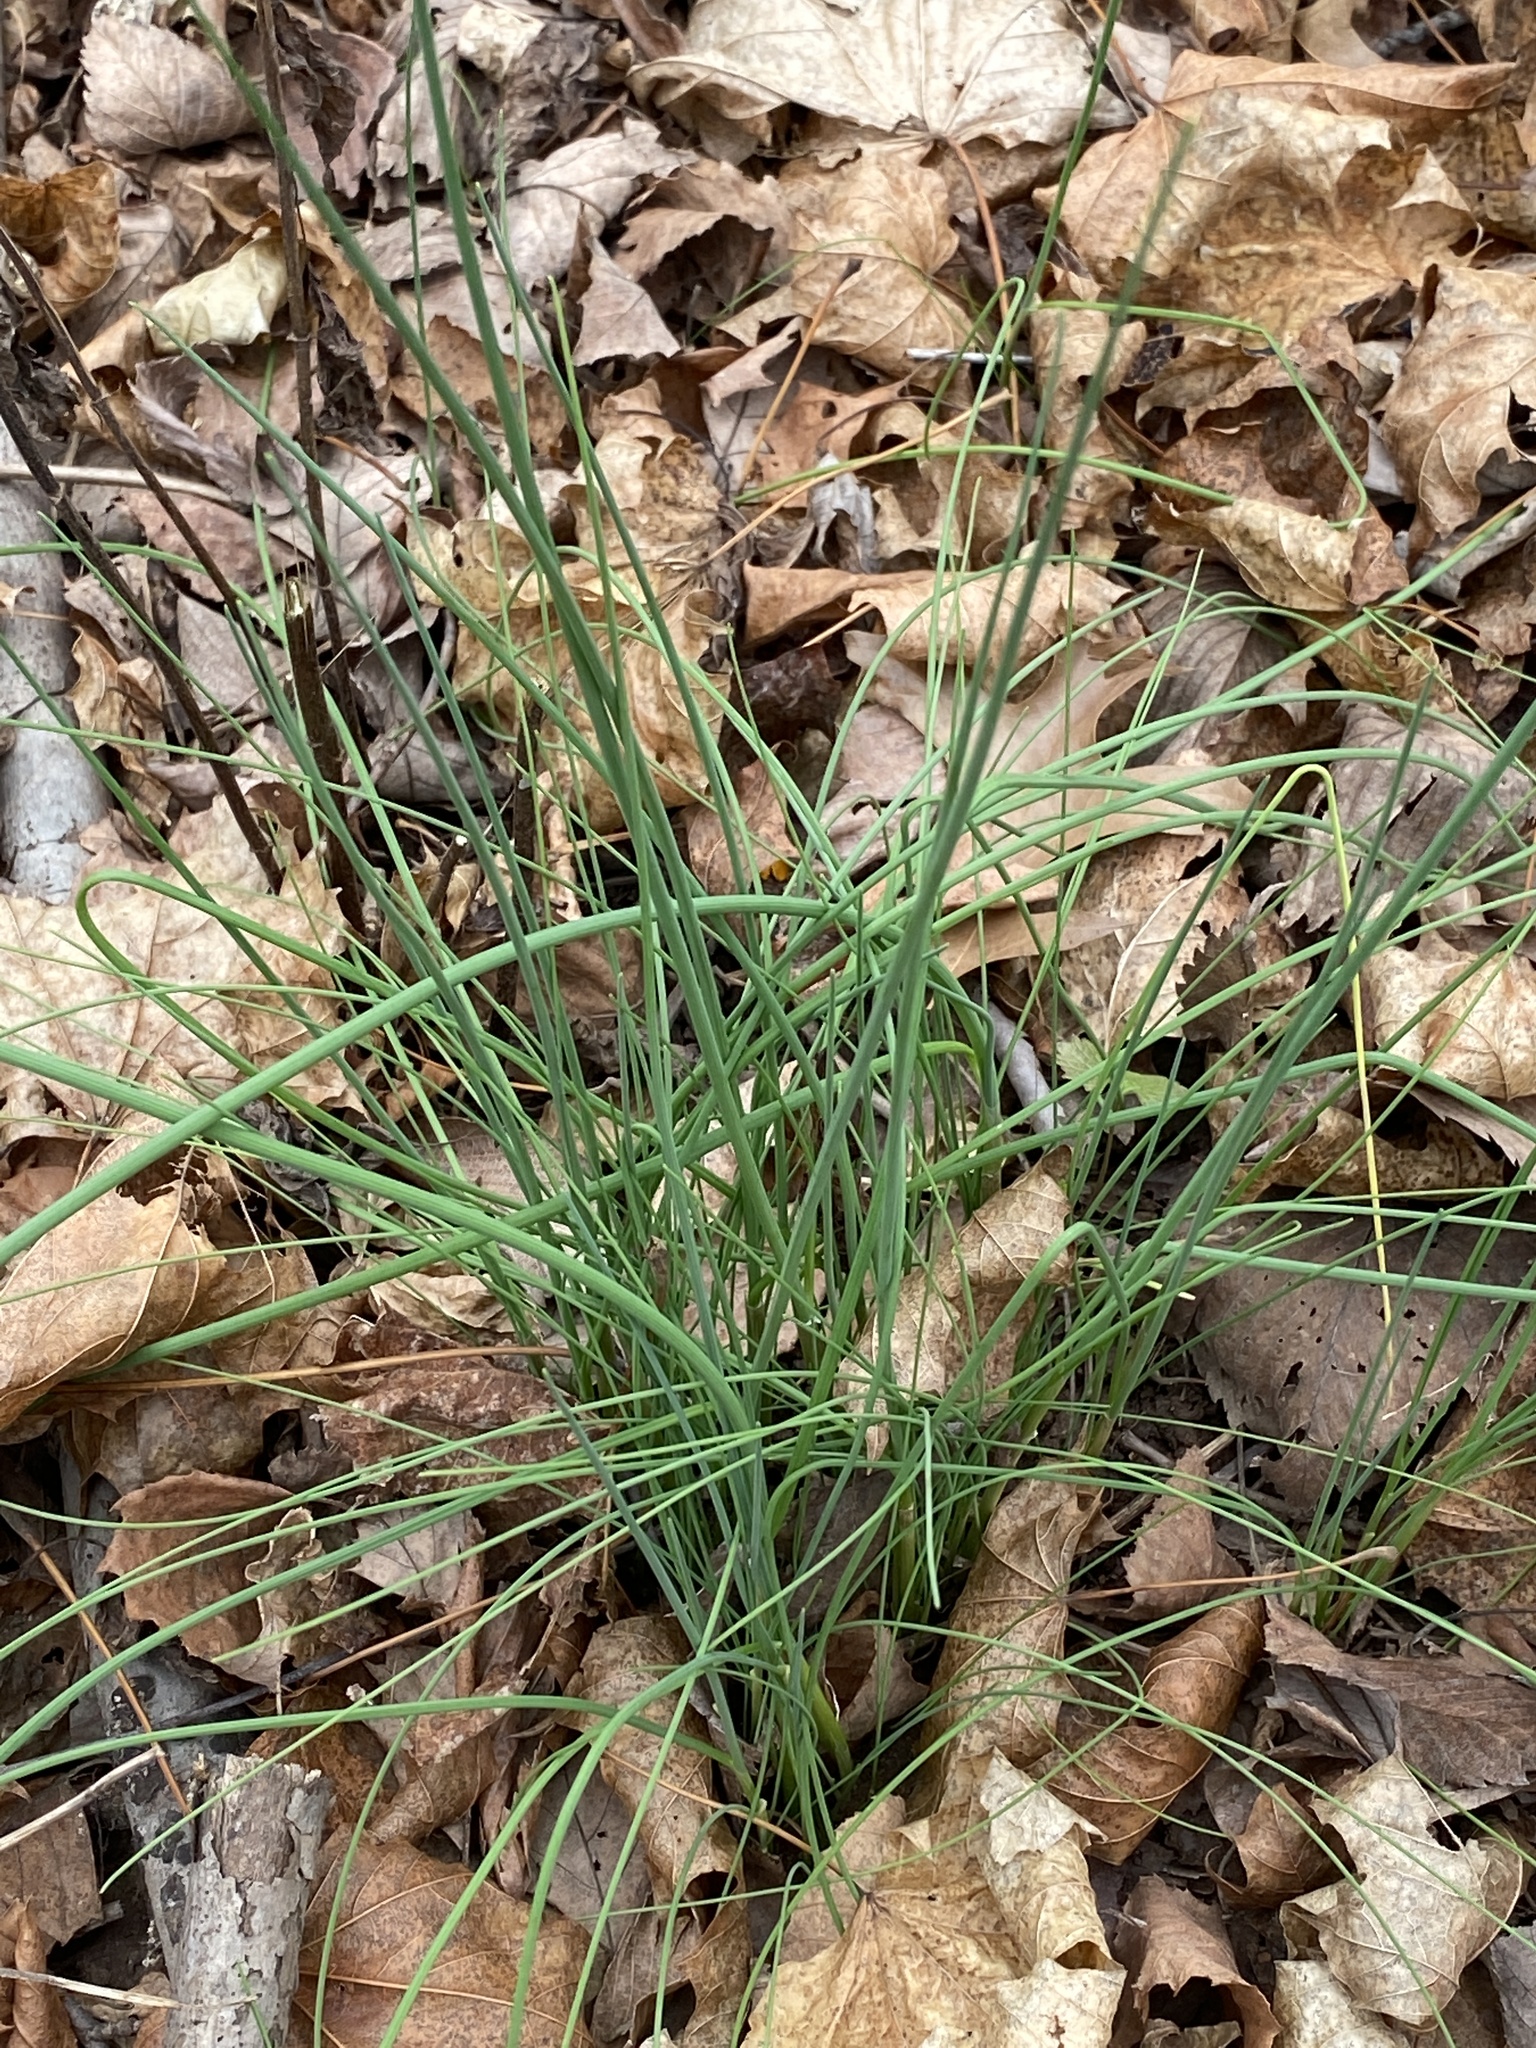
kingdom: Plantae
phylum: Tracheophyta
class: Liliopsida
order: Asparagales
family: Amaryllidaceae
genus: Allium
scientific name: Allium vineale
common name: Crow garlic
